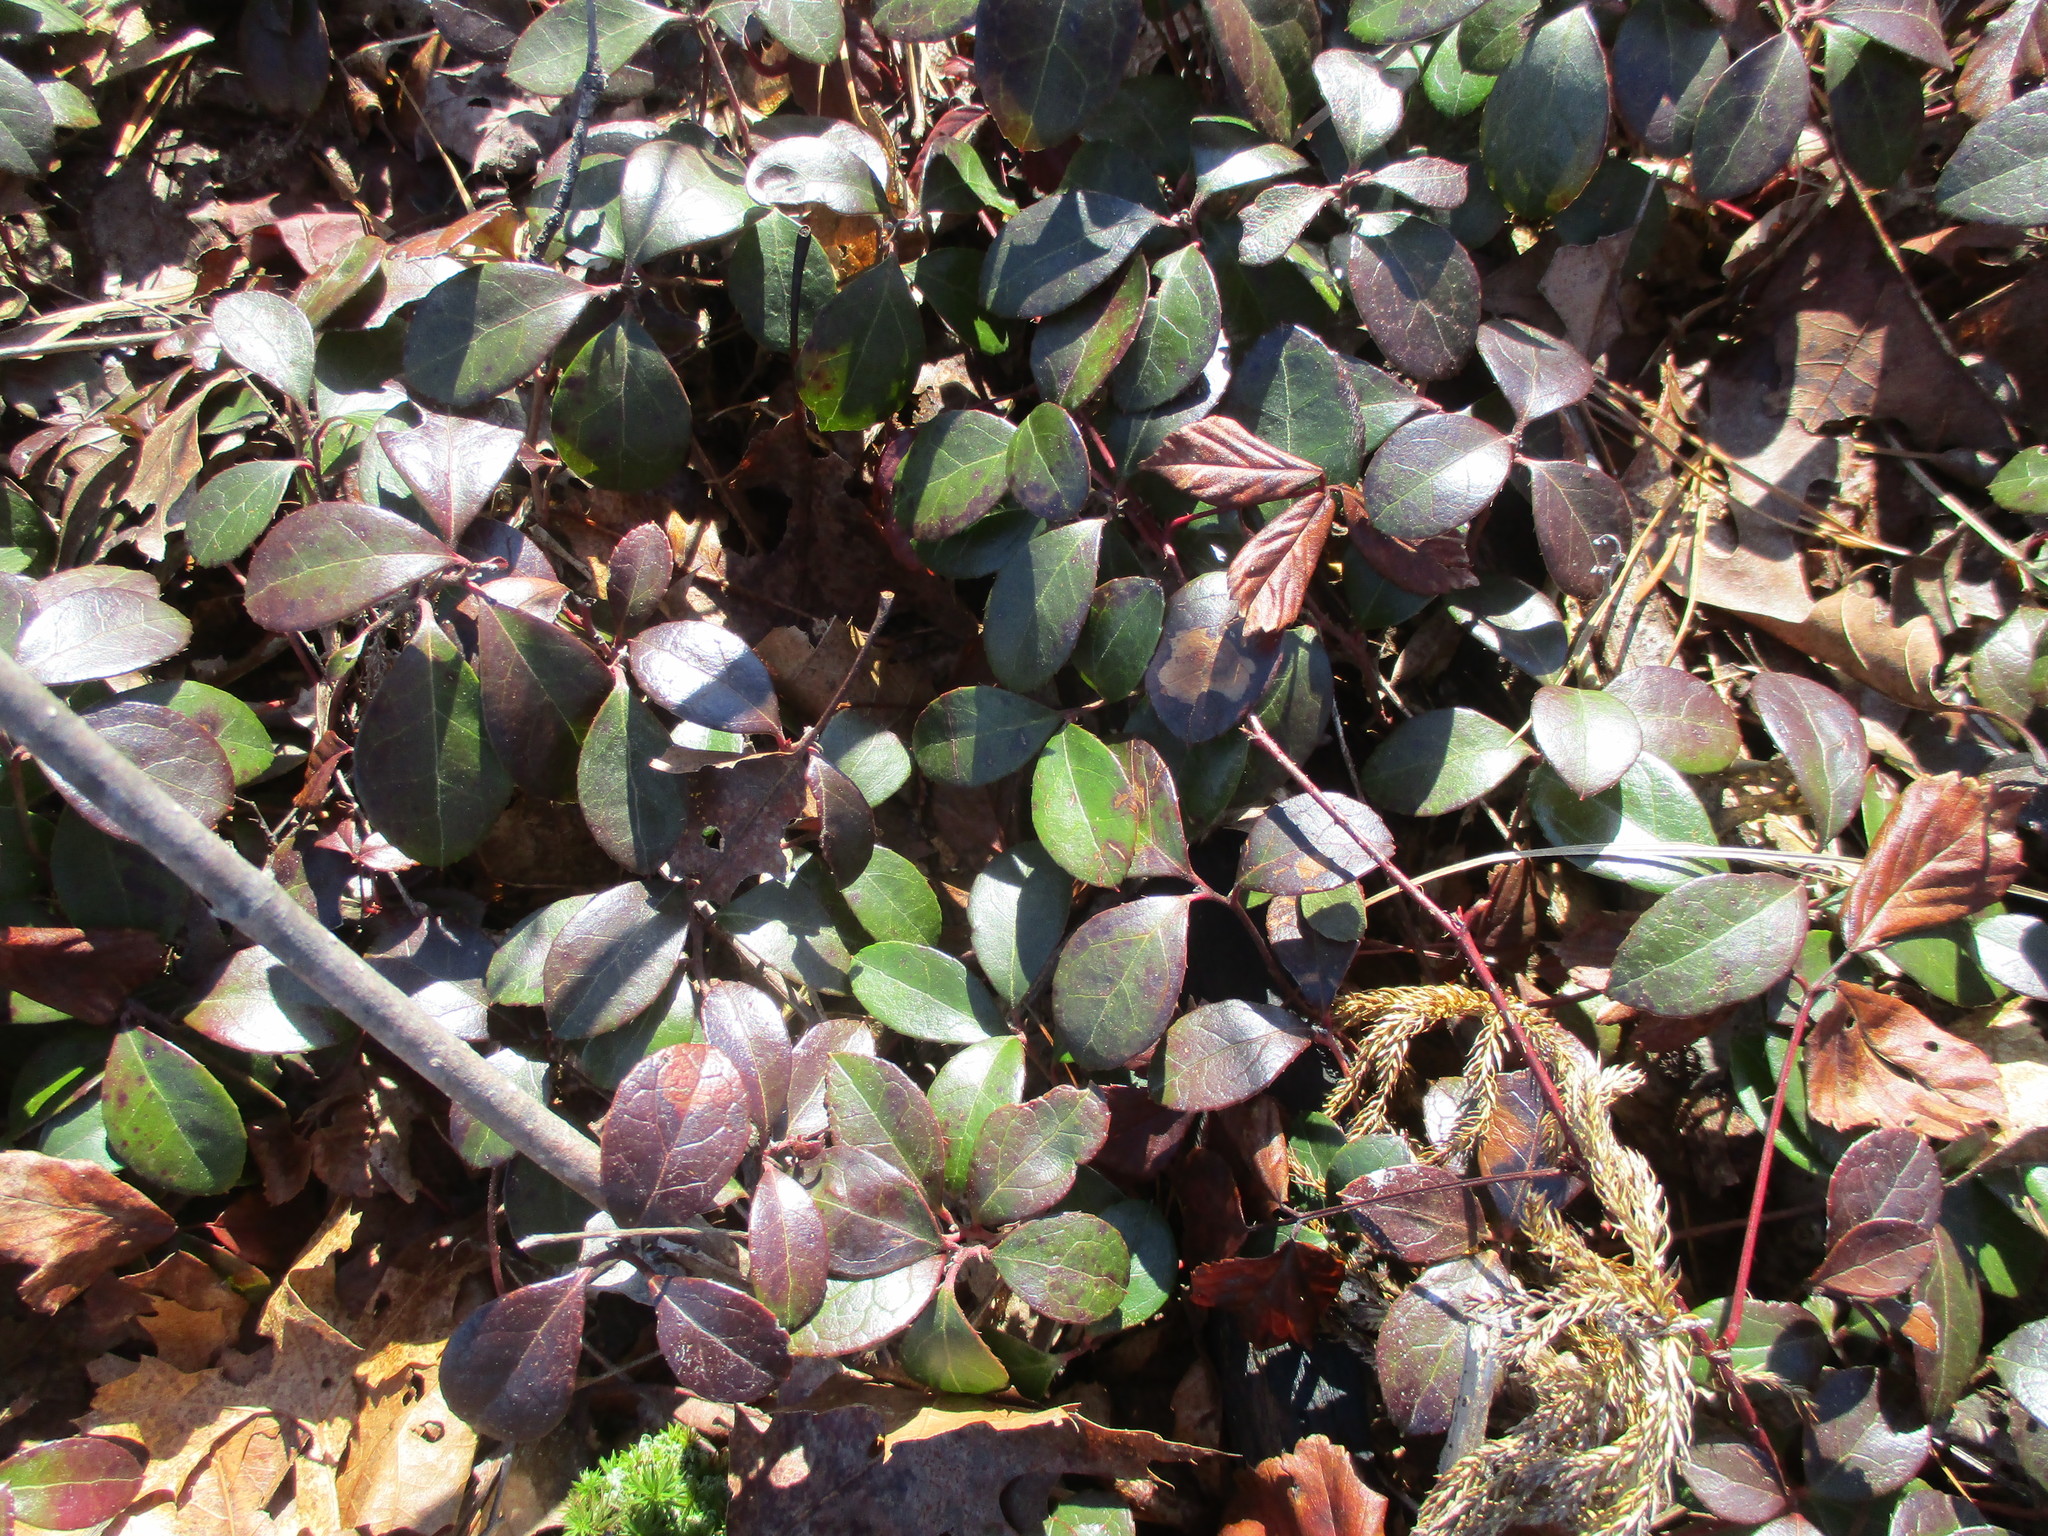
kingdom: Plantae
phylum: Tracheophyta
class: Magnoliopsida
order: Ericales
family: Ericaceae
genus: Gaultheria
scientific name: Gaultheria procumbens
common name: Checkerberry
